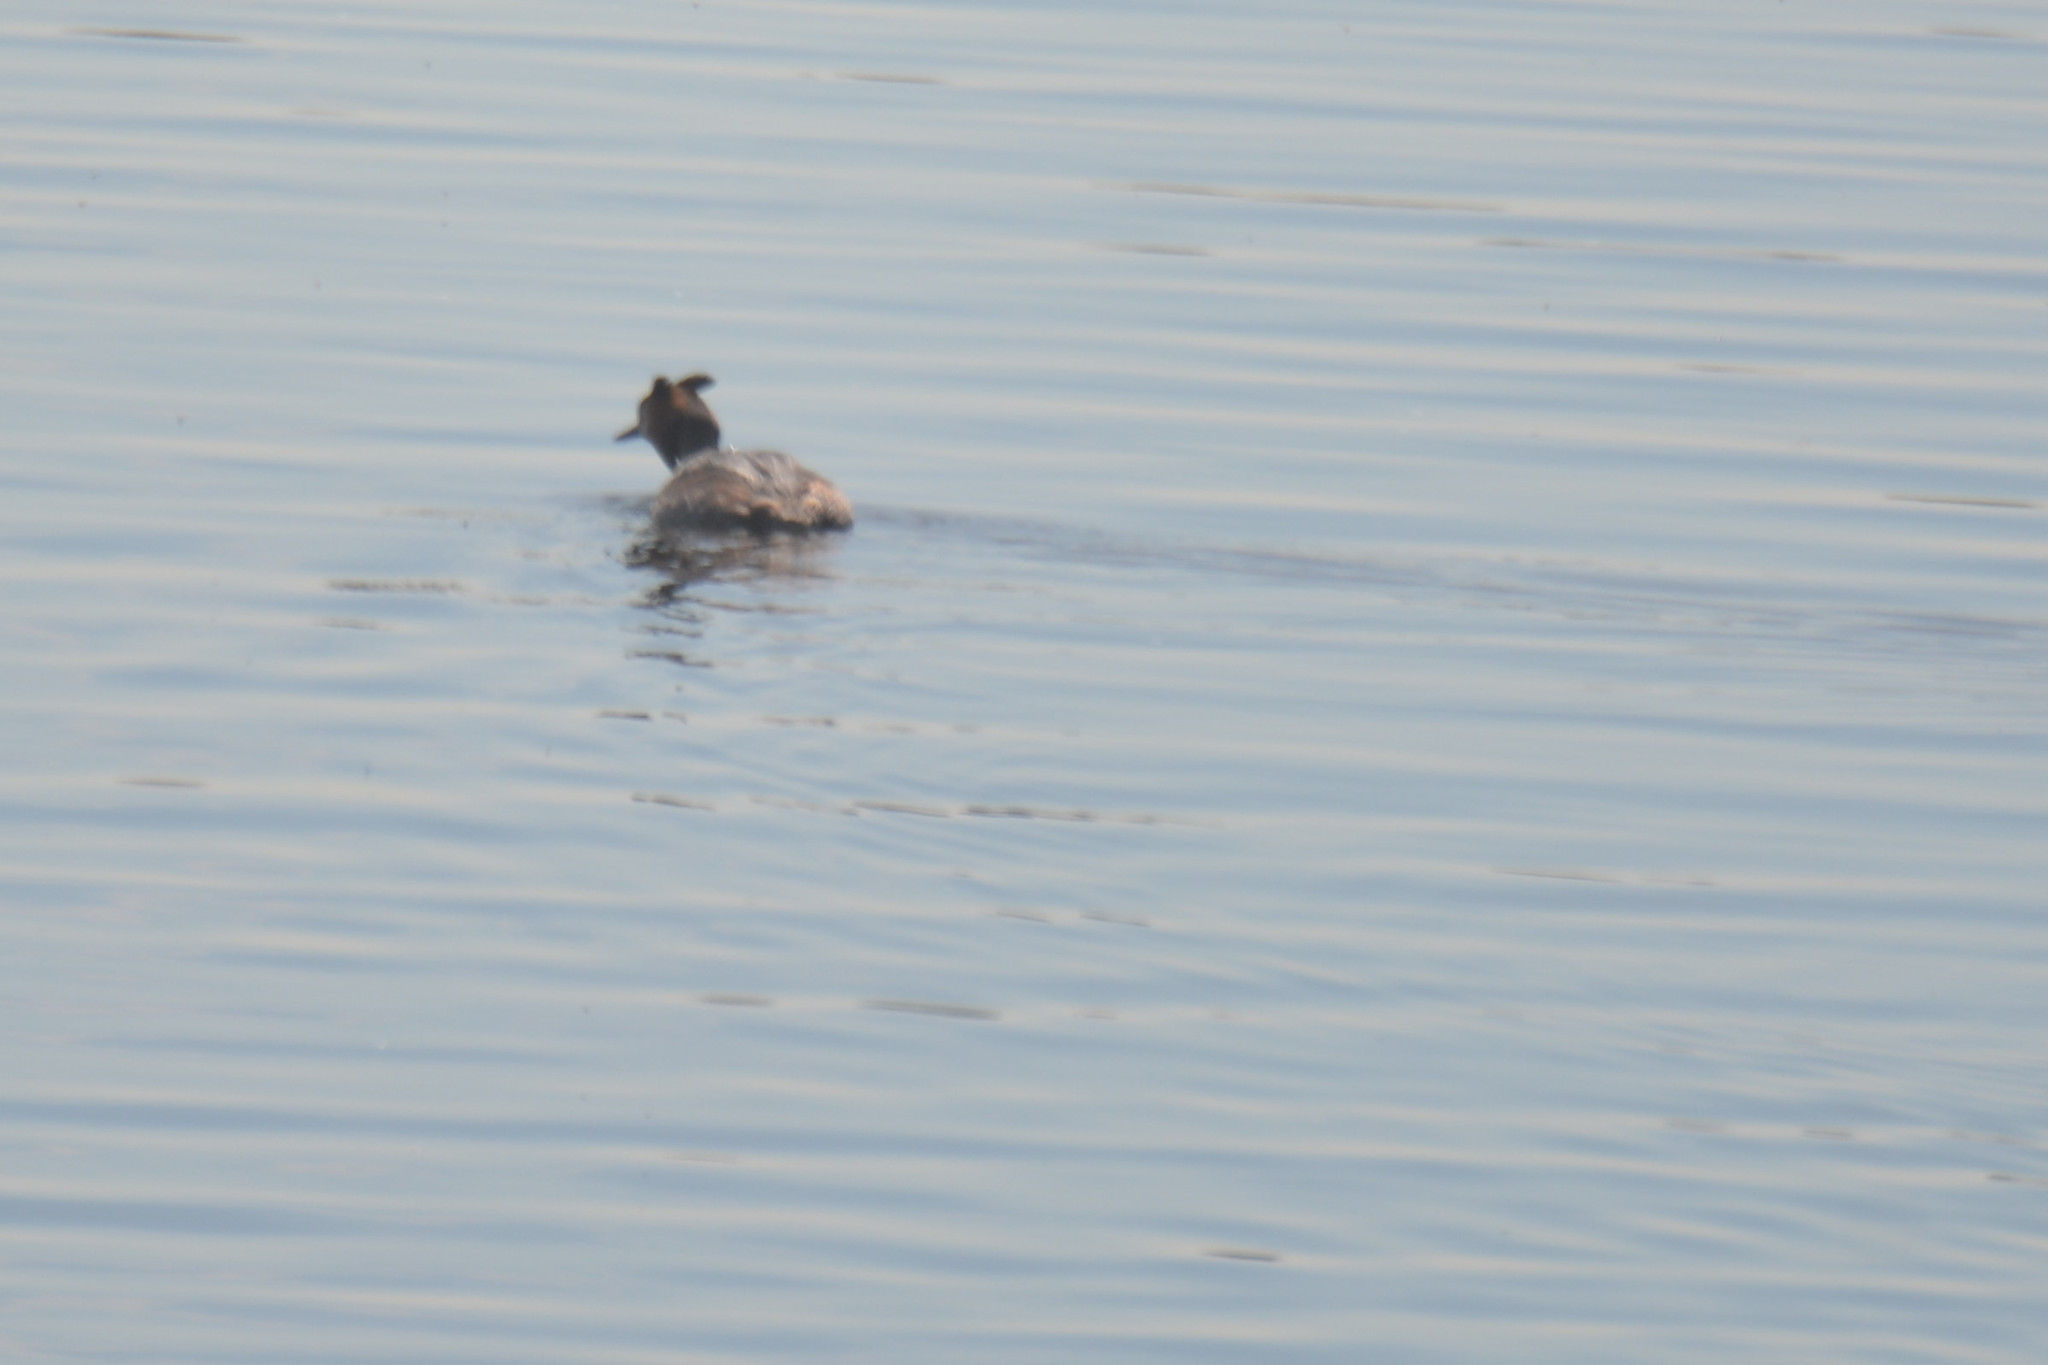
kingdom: Animalia
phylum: Chordata
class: Aves
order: Podicipediformes
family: Podicipedidae
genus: Podiceps
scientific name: Podiceps cristatus
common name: Great crested grebe
